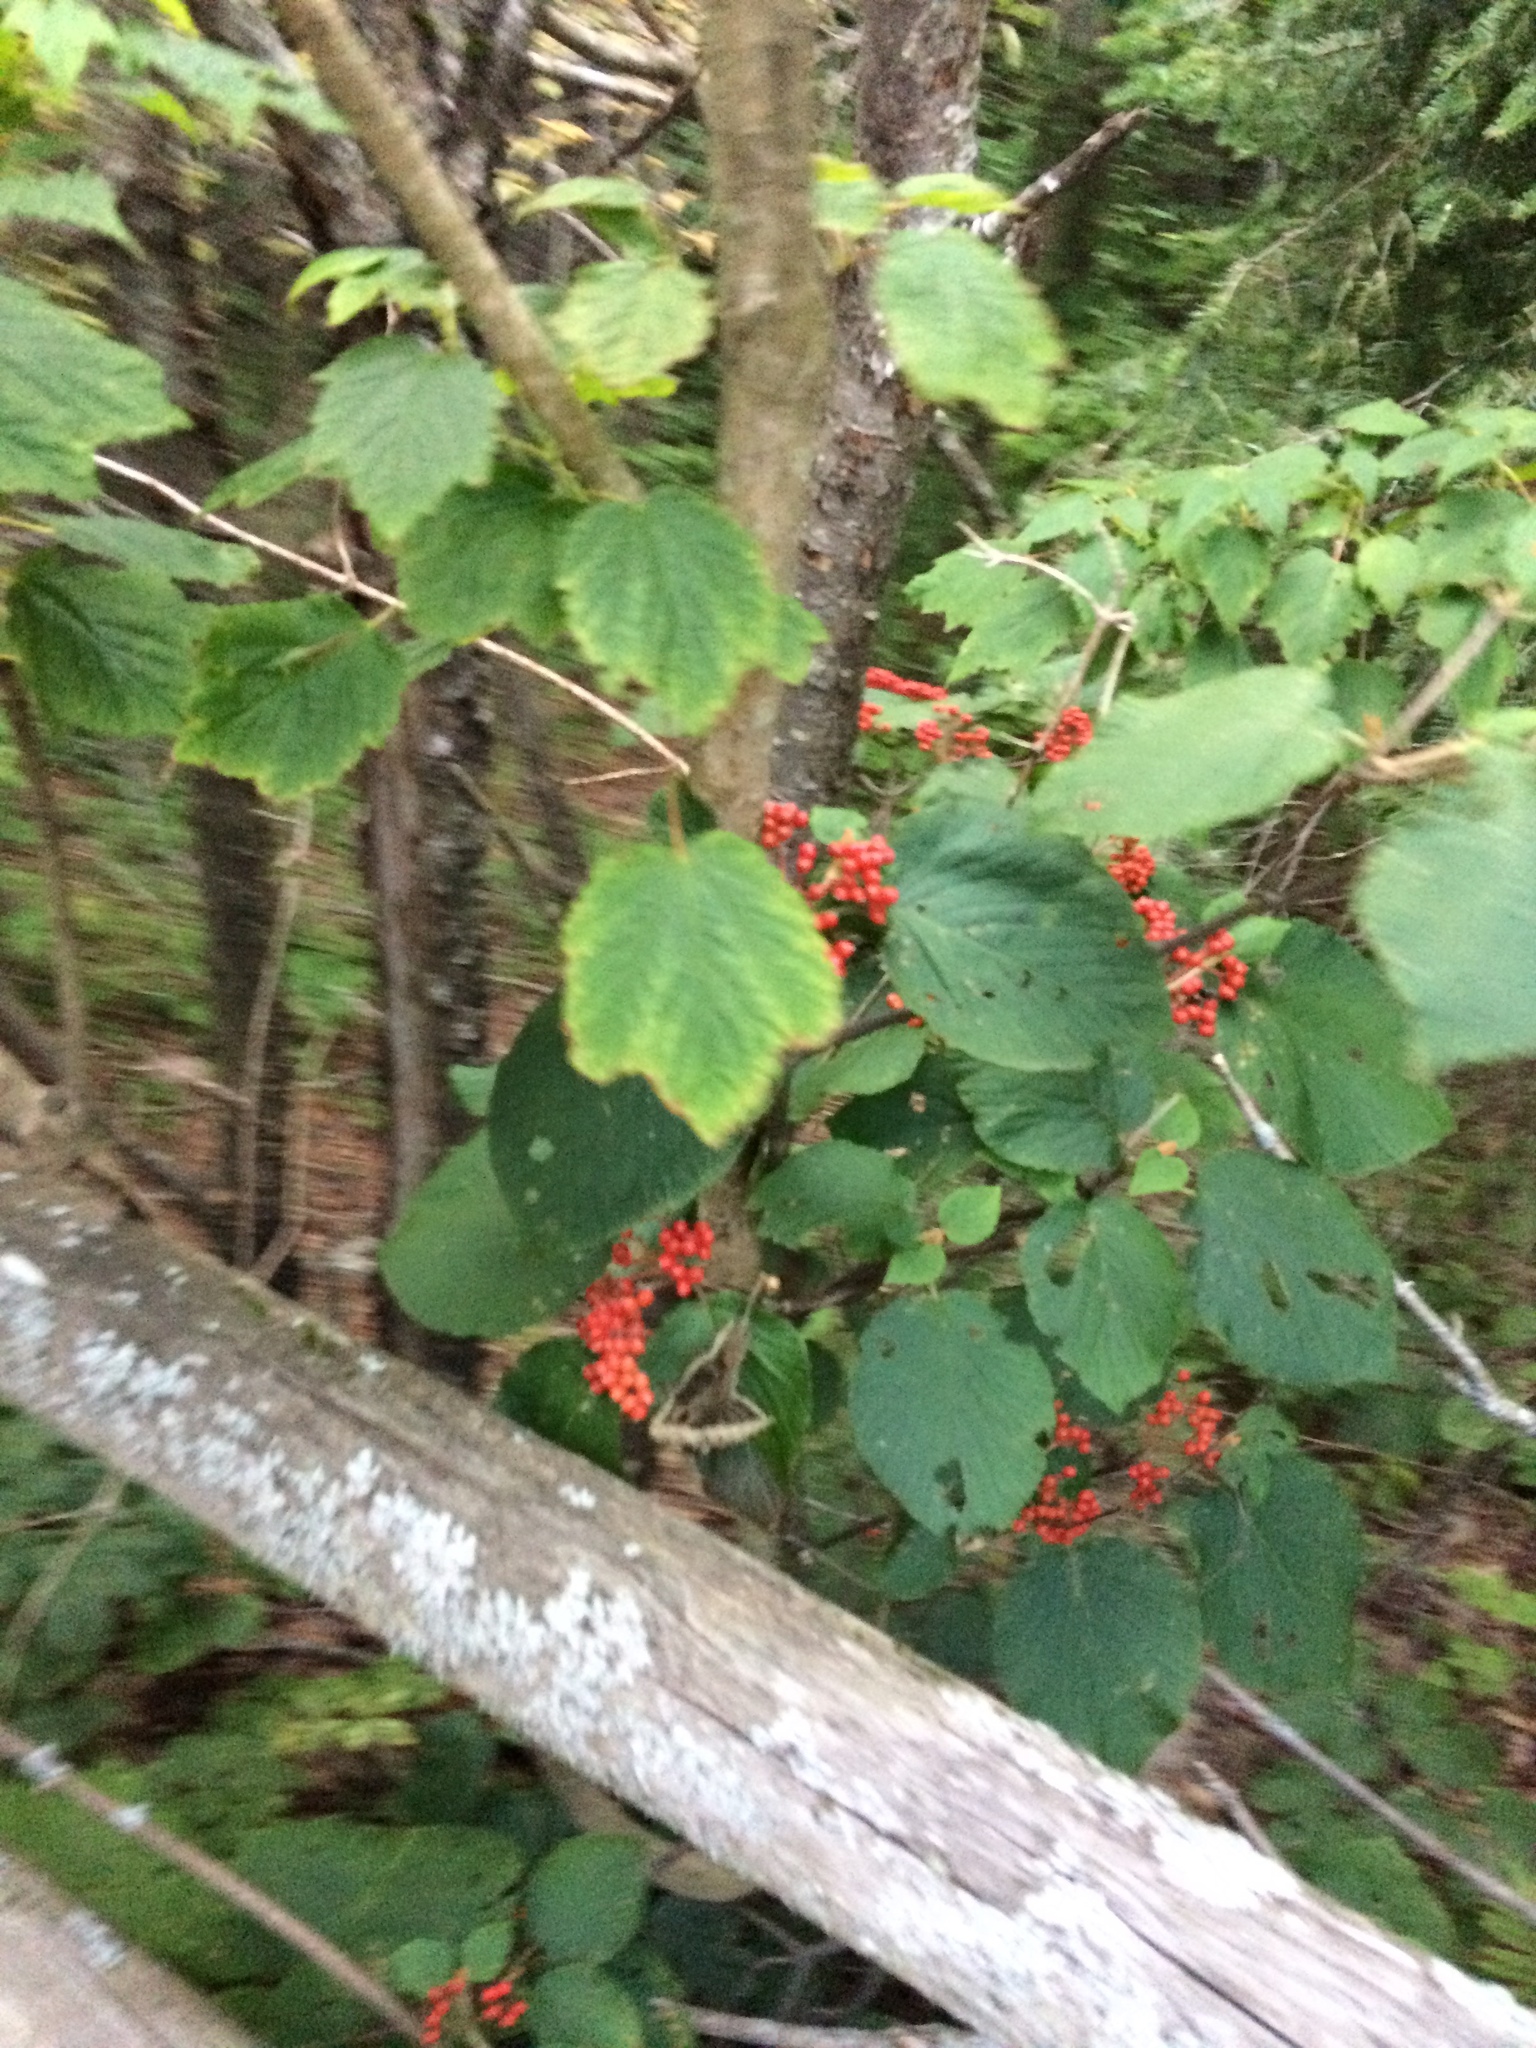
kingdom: Plantae
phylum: Tracheophyta
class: Magnoliopsida
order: Dipsacales
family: Viburnaceae
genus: Viburnum
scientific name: Viburnum lantanoides
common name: Hobblebush
